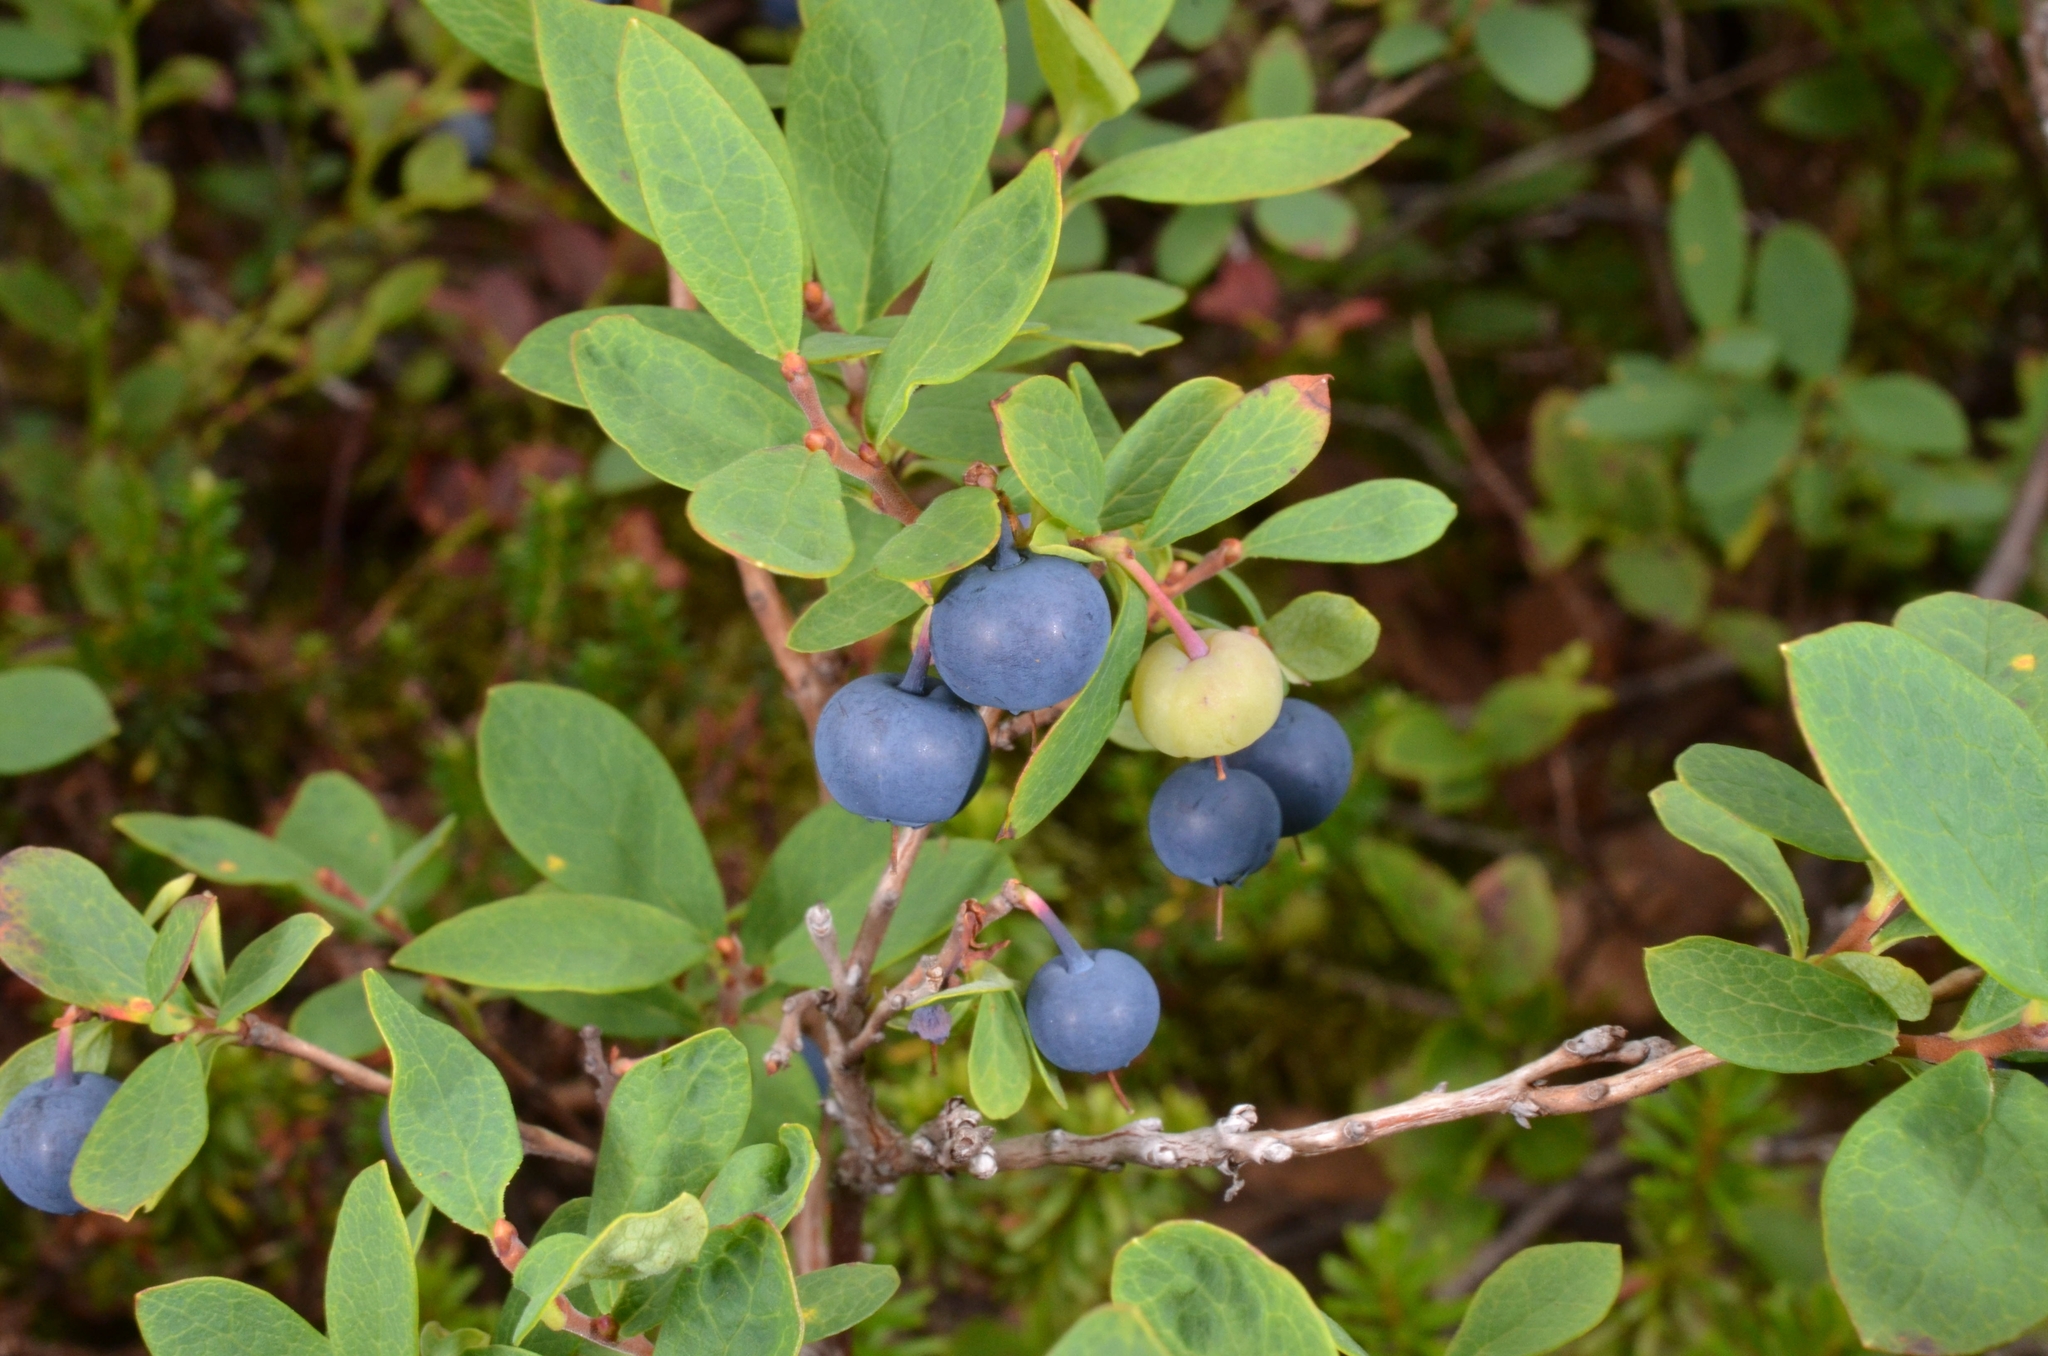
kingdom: Plantae
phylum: Tracheophyta
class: Magnoliopsida
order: Ericales
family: Ericaceae
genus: Vaccinium
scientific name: Vaccinium uliginosum
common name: Bog bilberry
